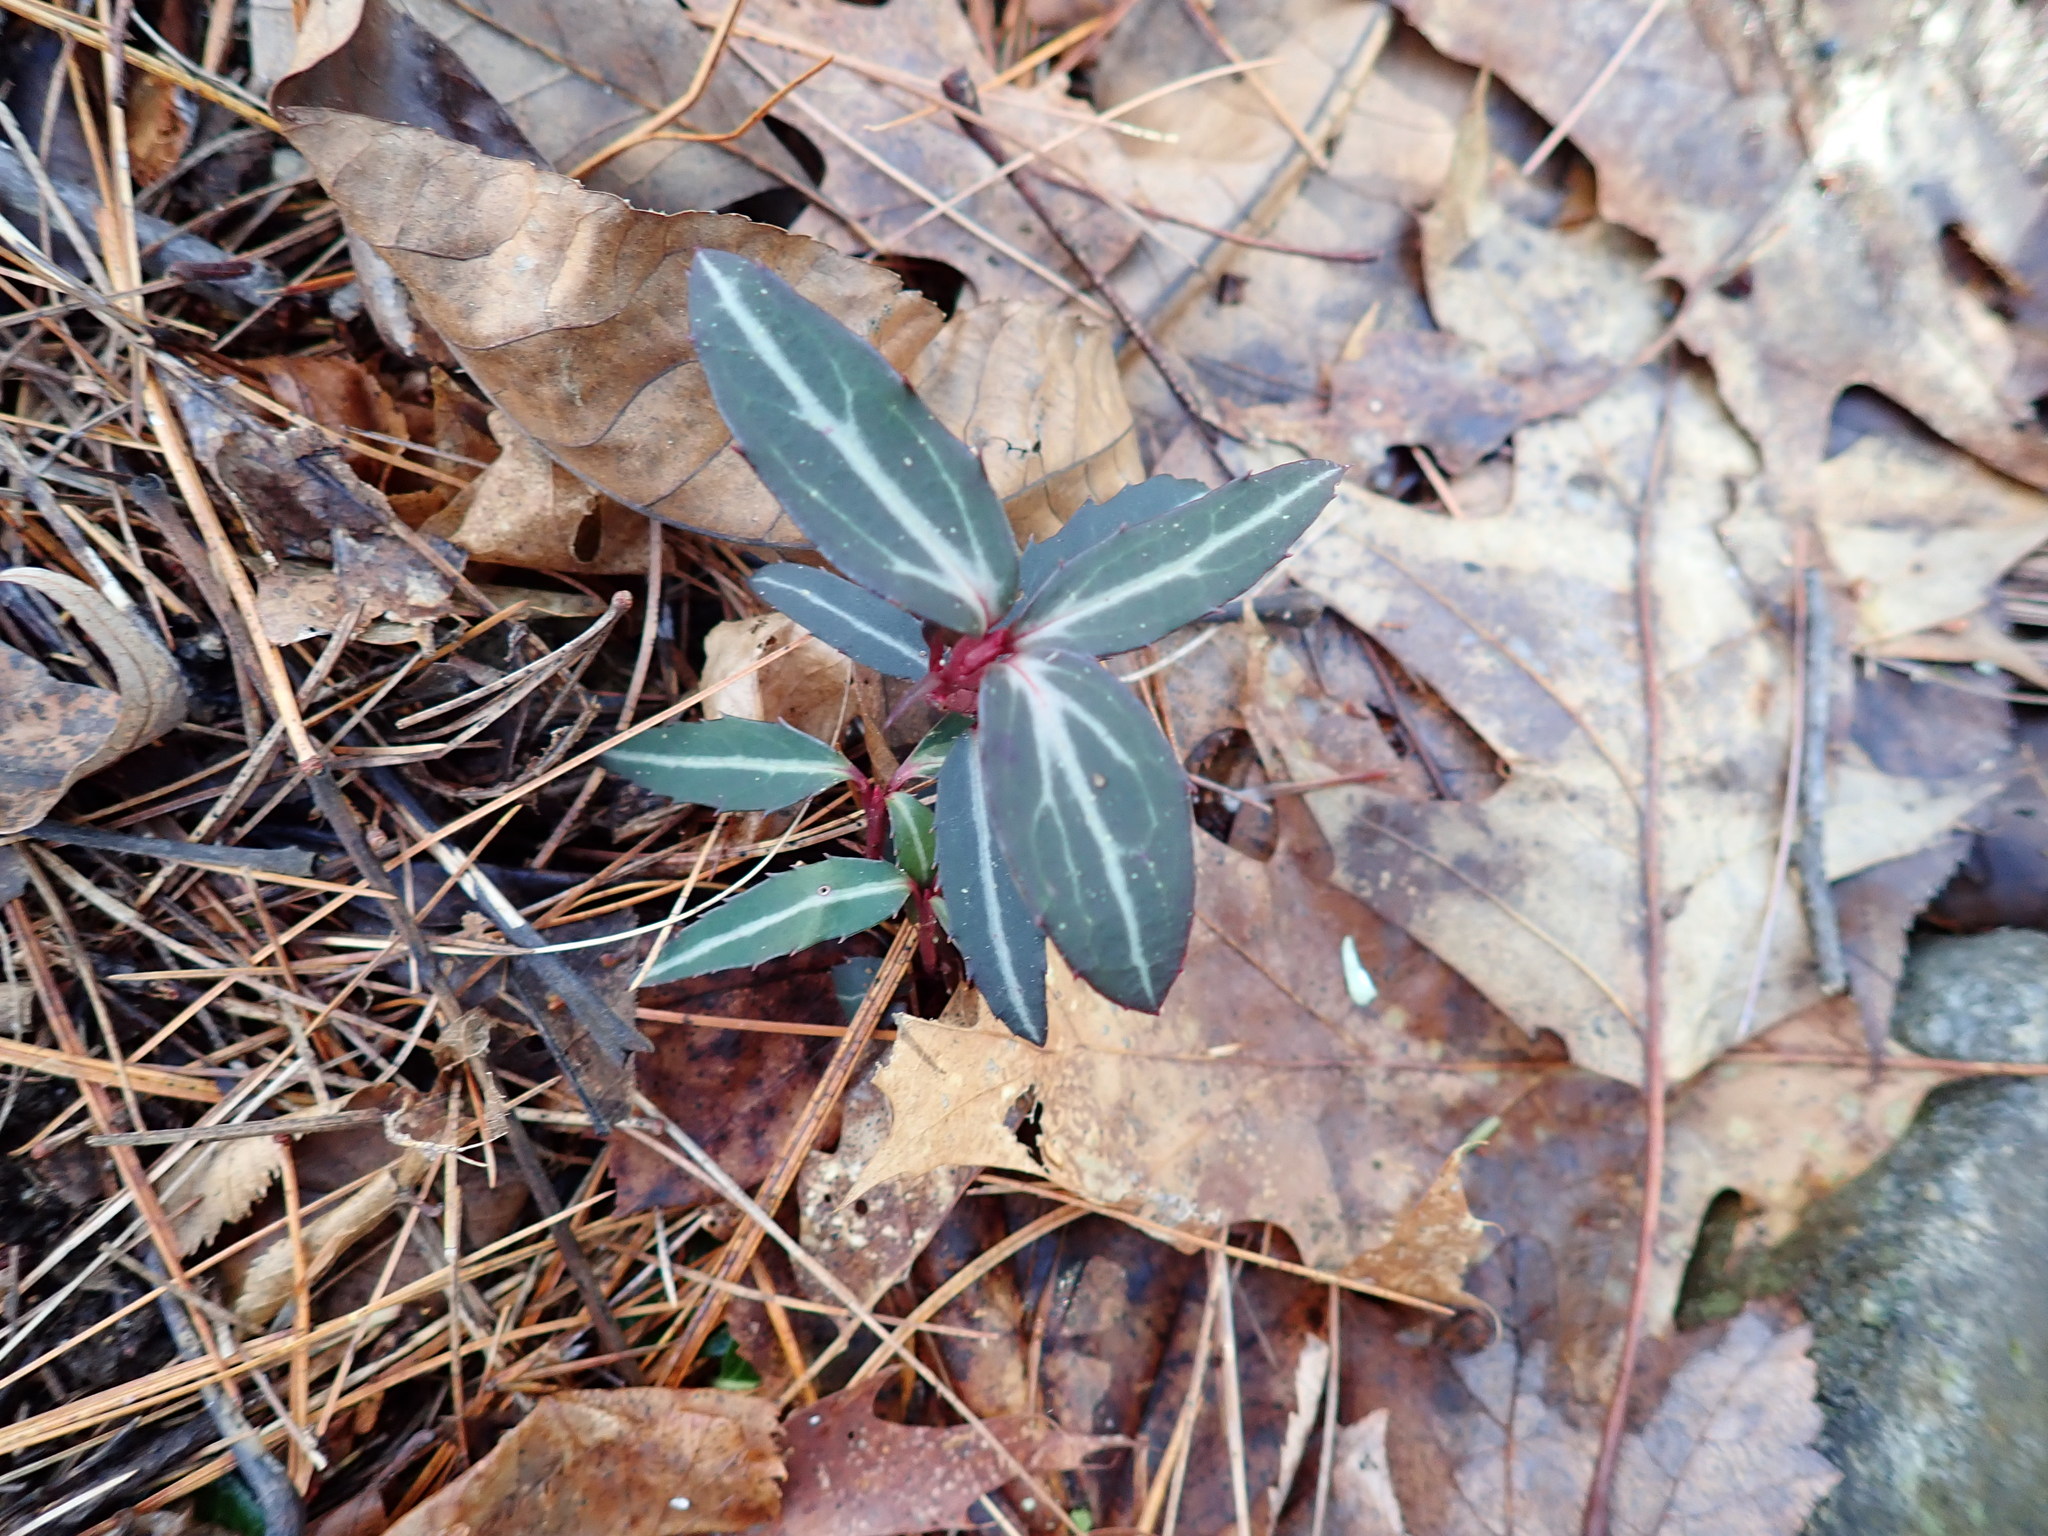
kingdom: Plantae
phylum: Tracheophyta
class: Magnoliopsida
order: Ericales
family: Ericaceae
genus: Chimaphila
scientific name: Chimaphila maculata
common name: Spotted pipsissewa
